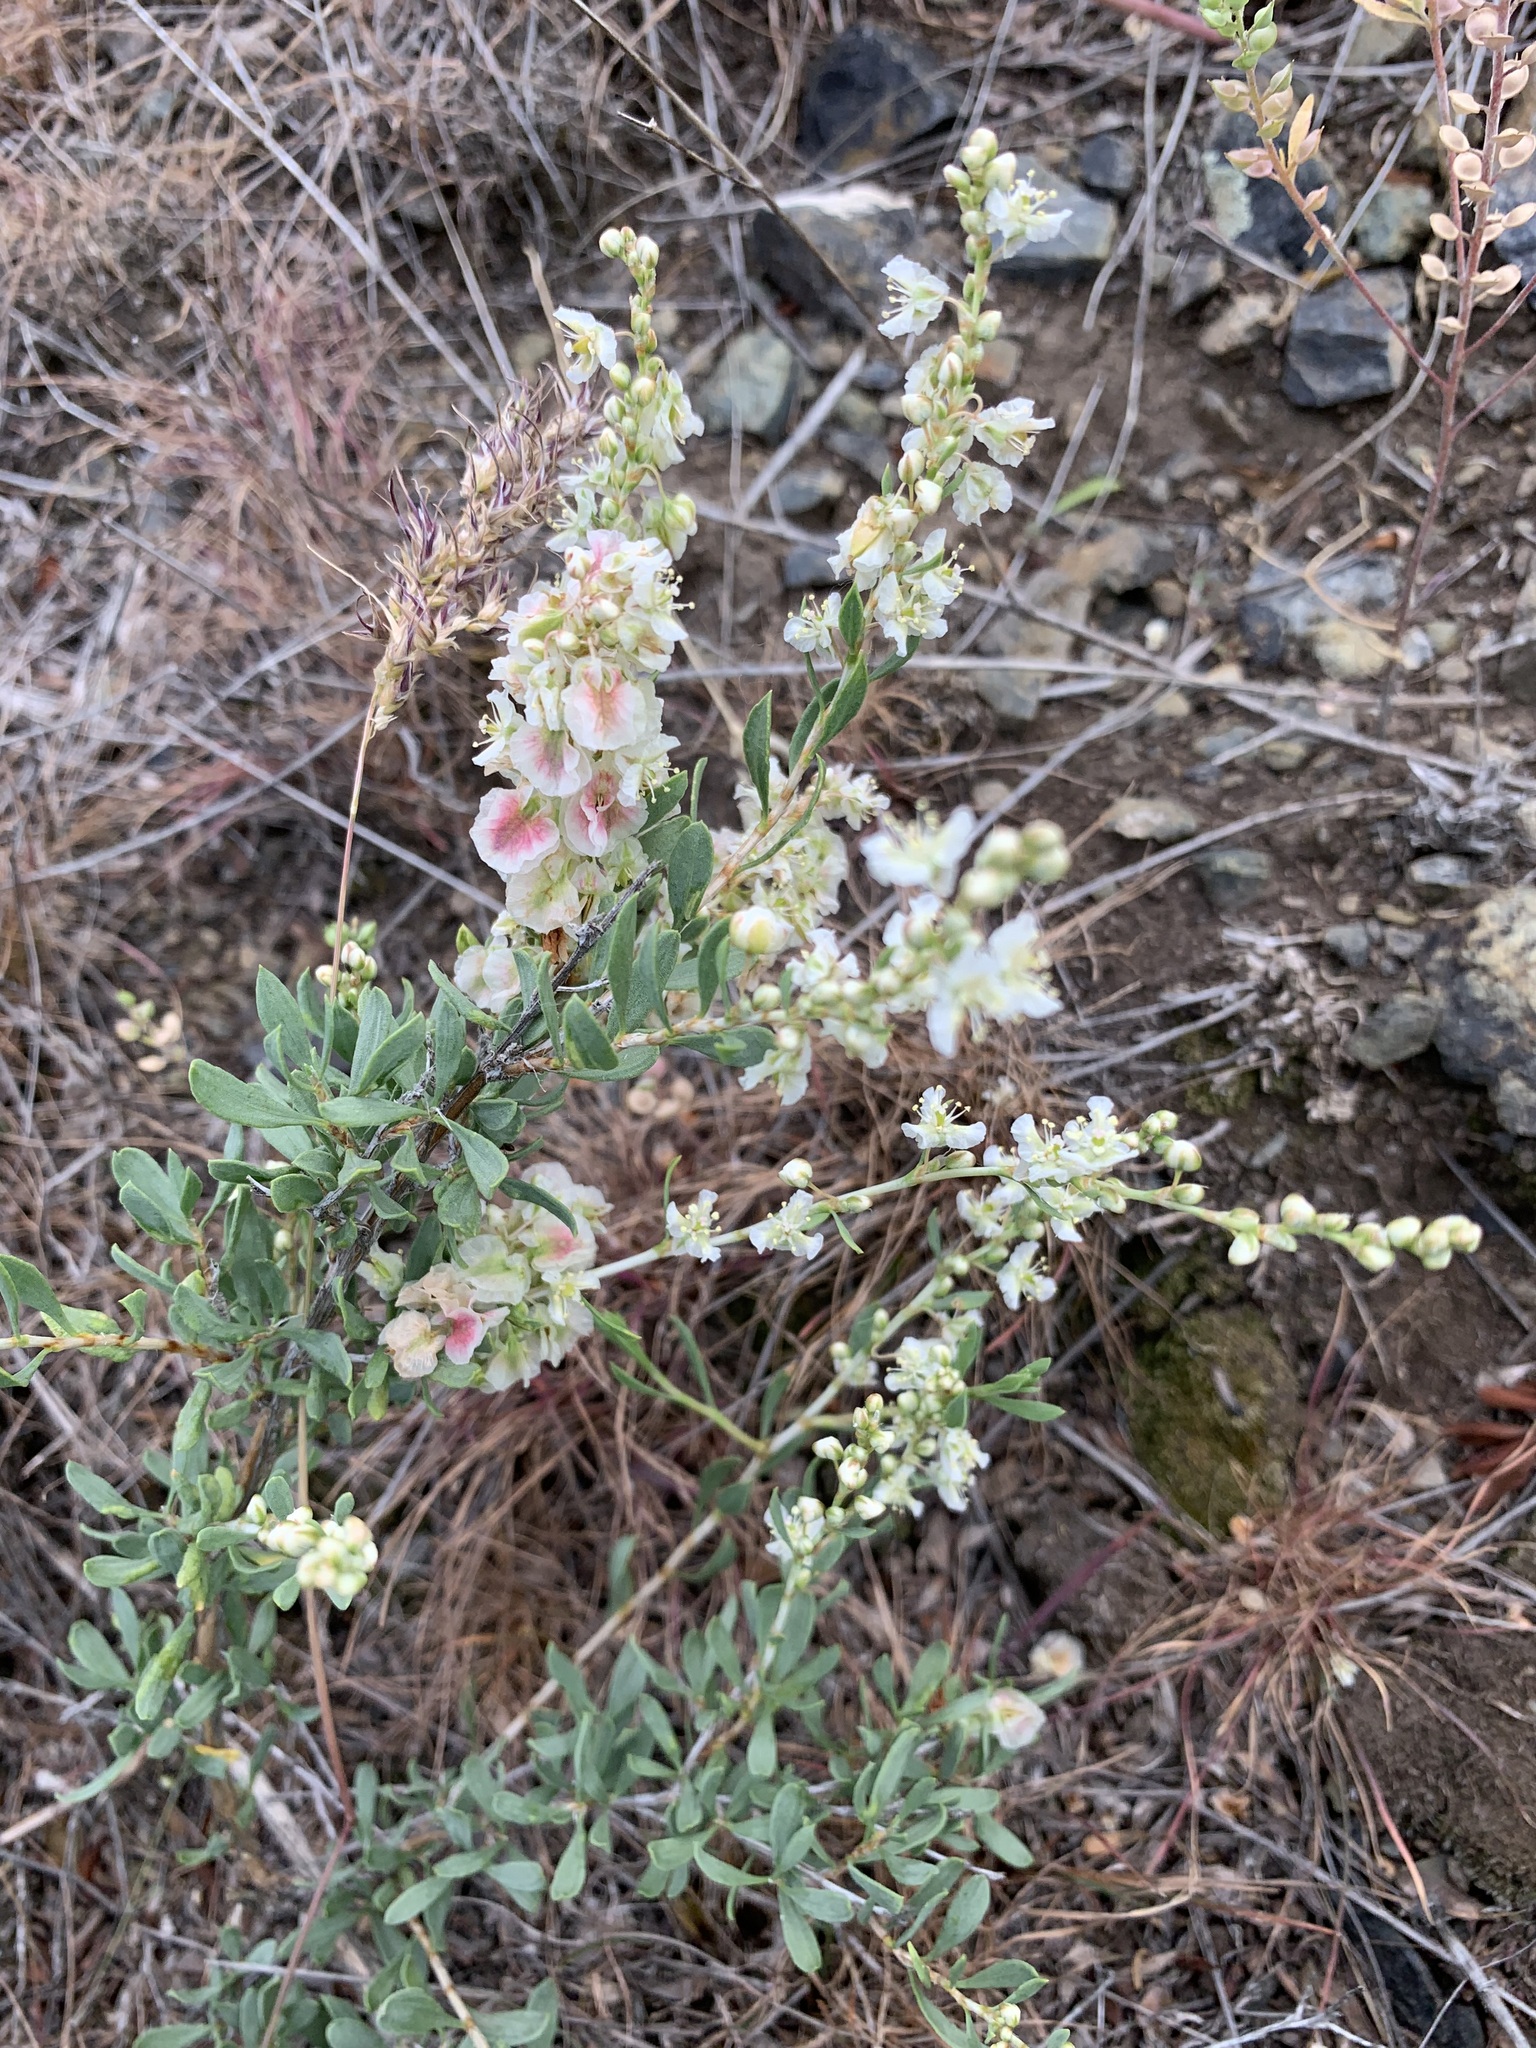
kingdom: Plantae
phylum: Tracheophyta
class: Magnoliopsida
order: Caryophyllales
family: Polygonaceae
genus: Atraphaxis
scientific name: Atraphaxis frutescens
